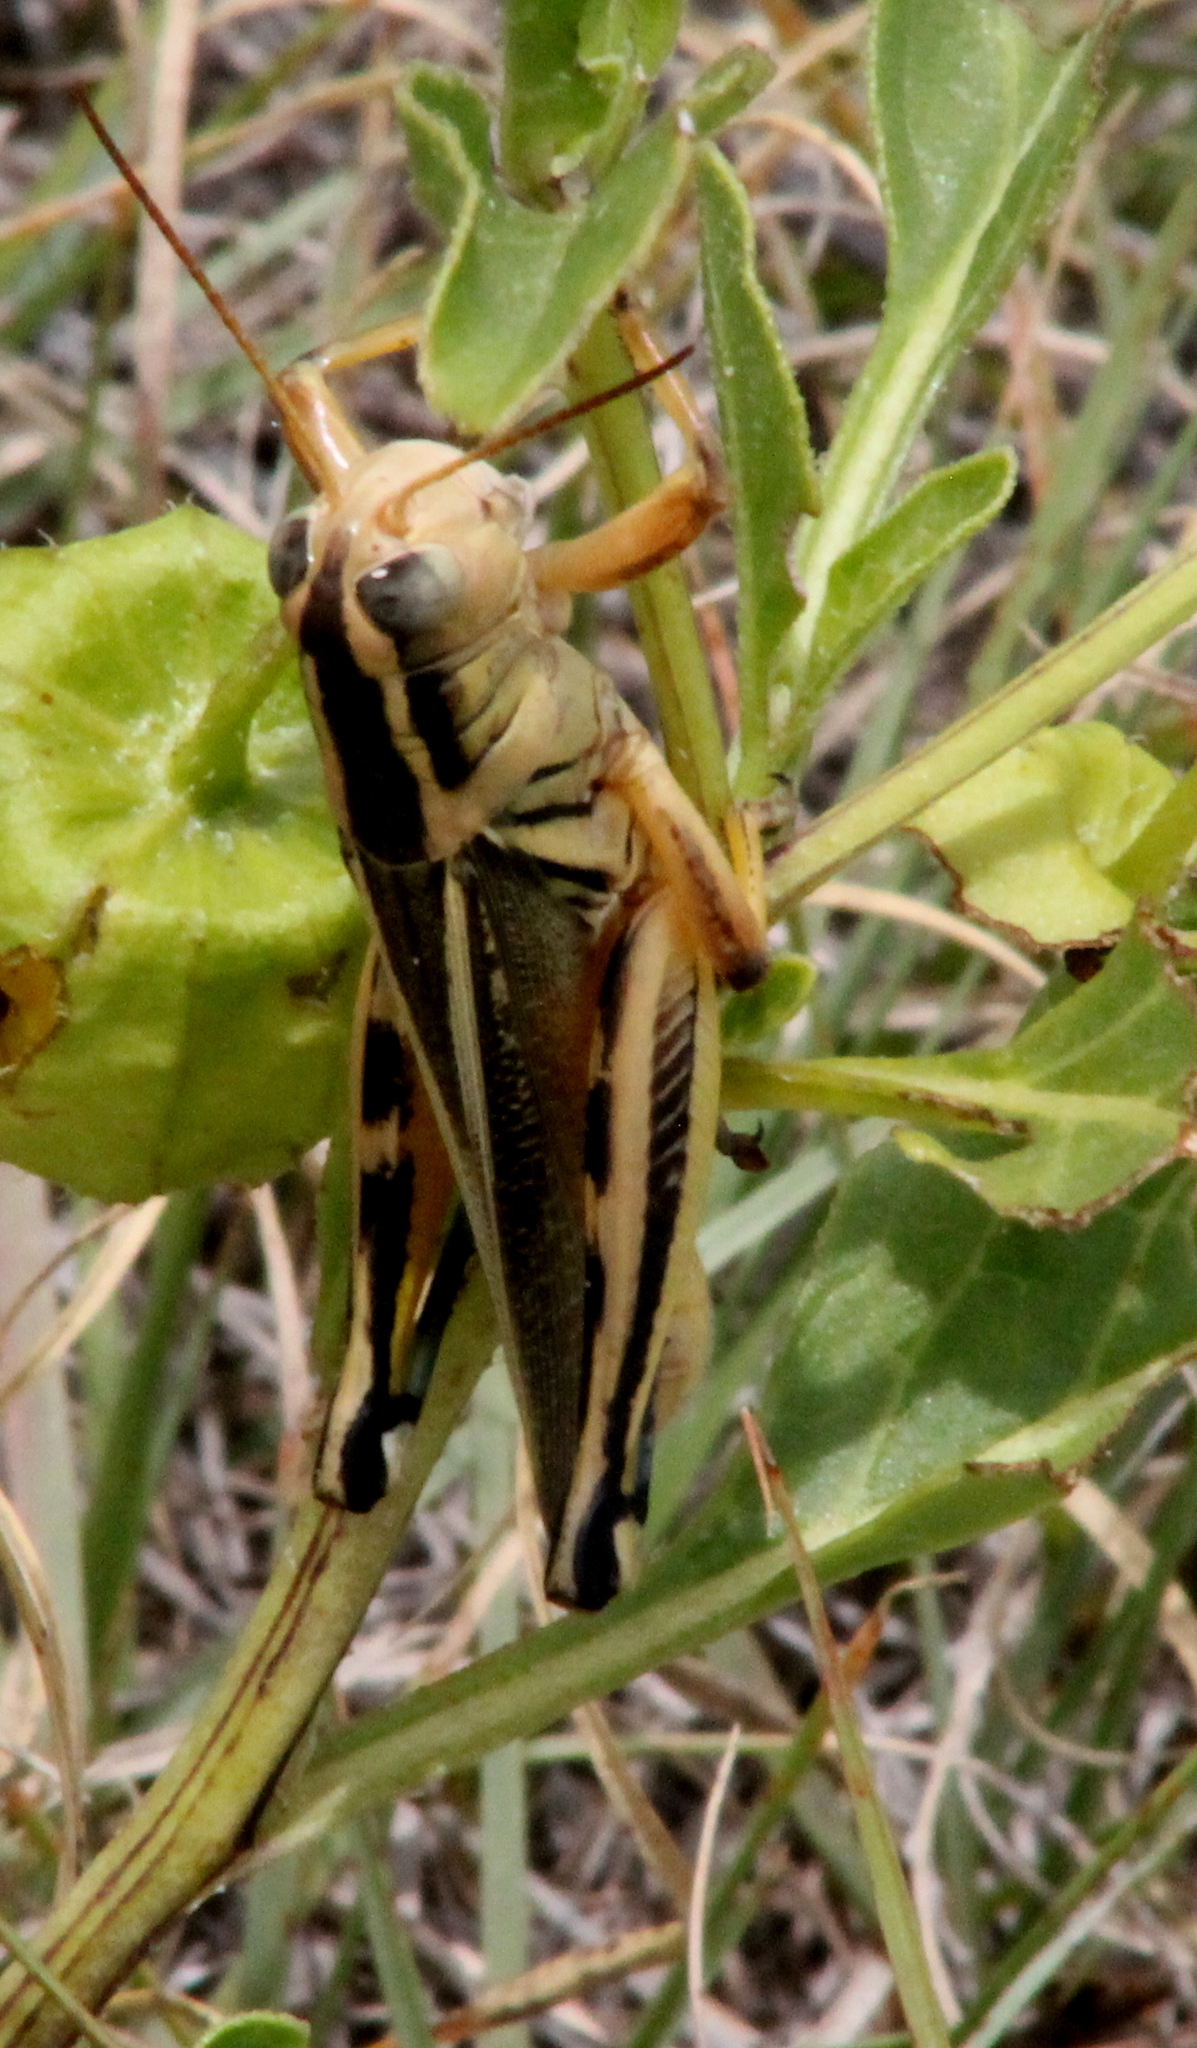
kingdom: Animalia
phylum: Arthropoda
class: Insecta
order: Orthoptera
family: Acrididae
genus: Melanoplus
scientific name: Melanoplus bivittatus
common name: Two-striped grasshopper
